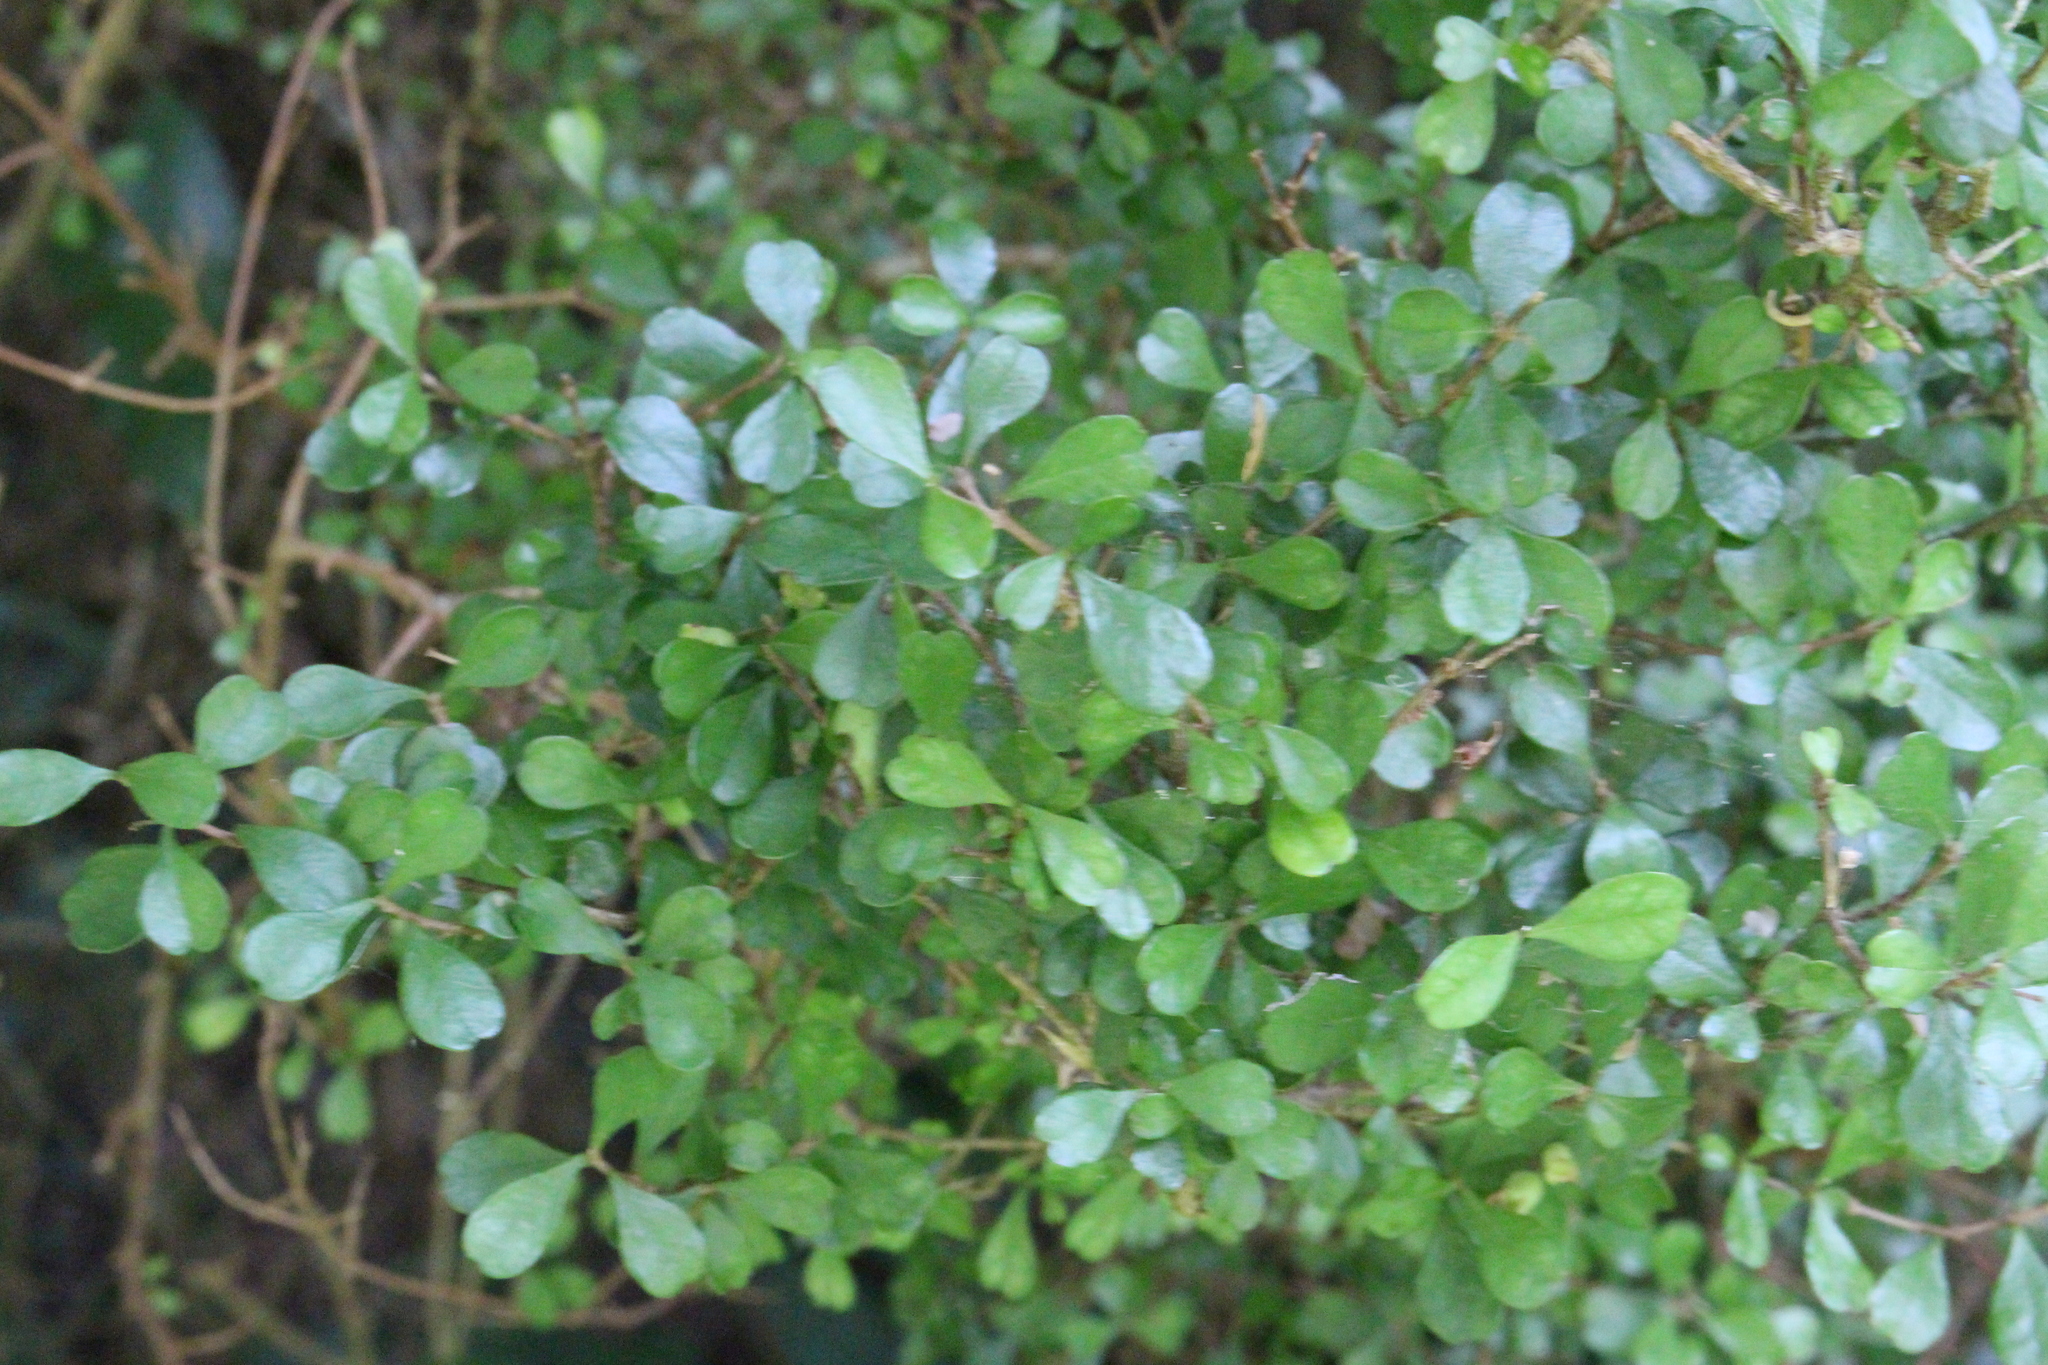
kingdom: Plantae
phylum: Tracheophyta
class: Magnoliopsida
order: Myrtales
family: Myrtaceae
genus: Lophomyrtus
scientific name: Lophomyrtus obcordata
